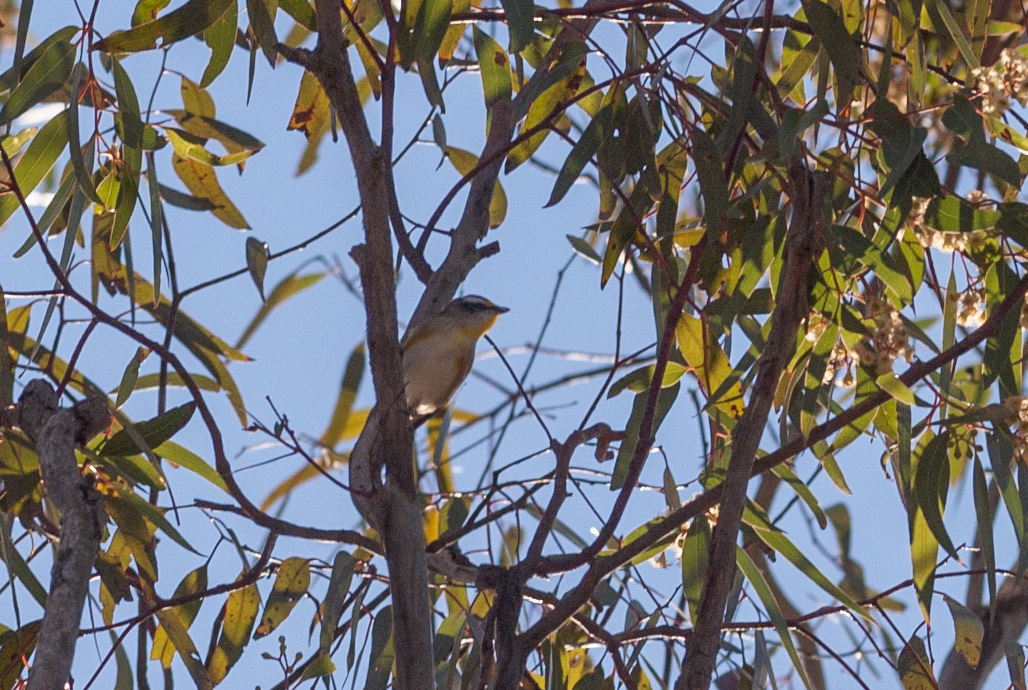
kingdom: Animalia
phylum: Chordata
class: Aves
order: Passeriformes
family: Pardalotidae
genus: Pardalotus
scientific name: Pardalotus striatus
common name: Striated pardalote
